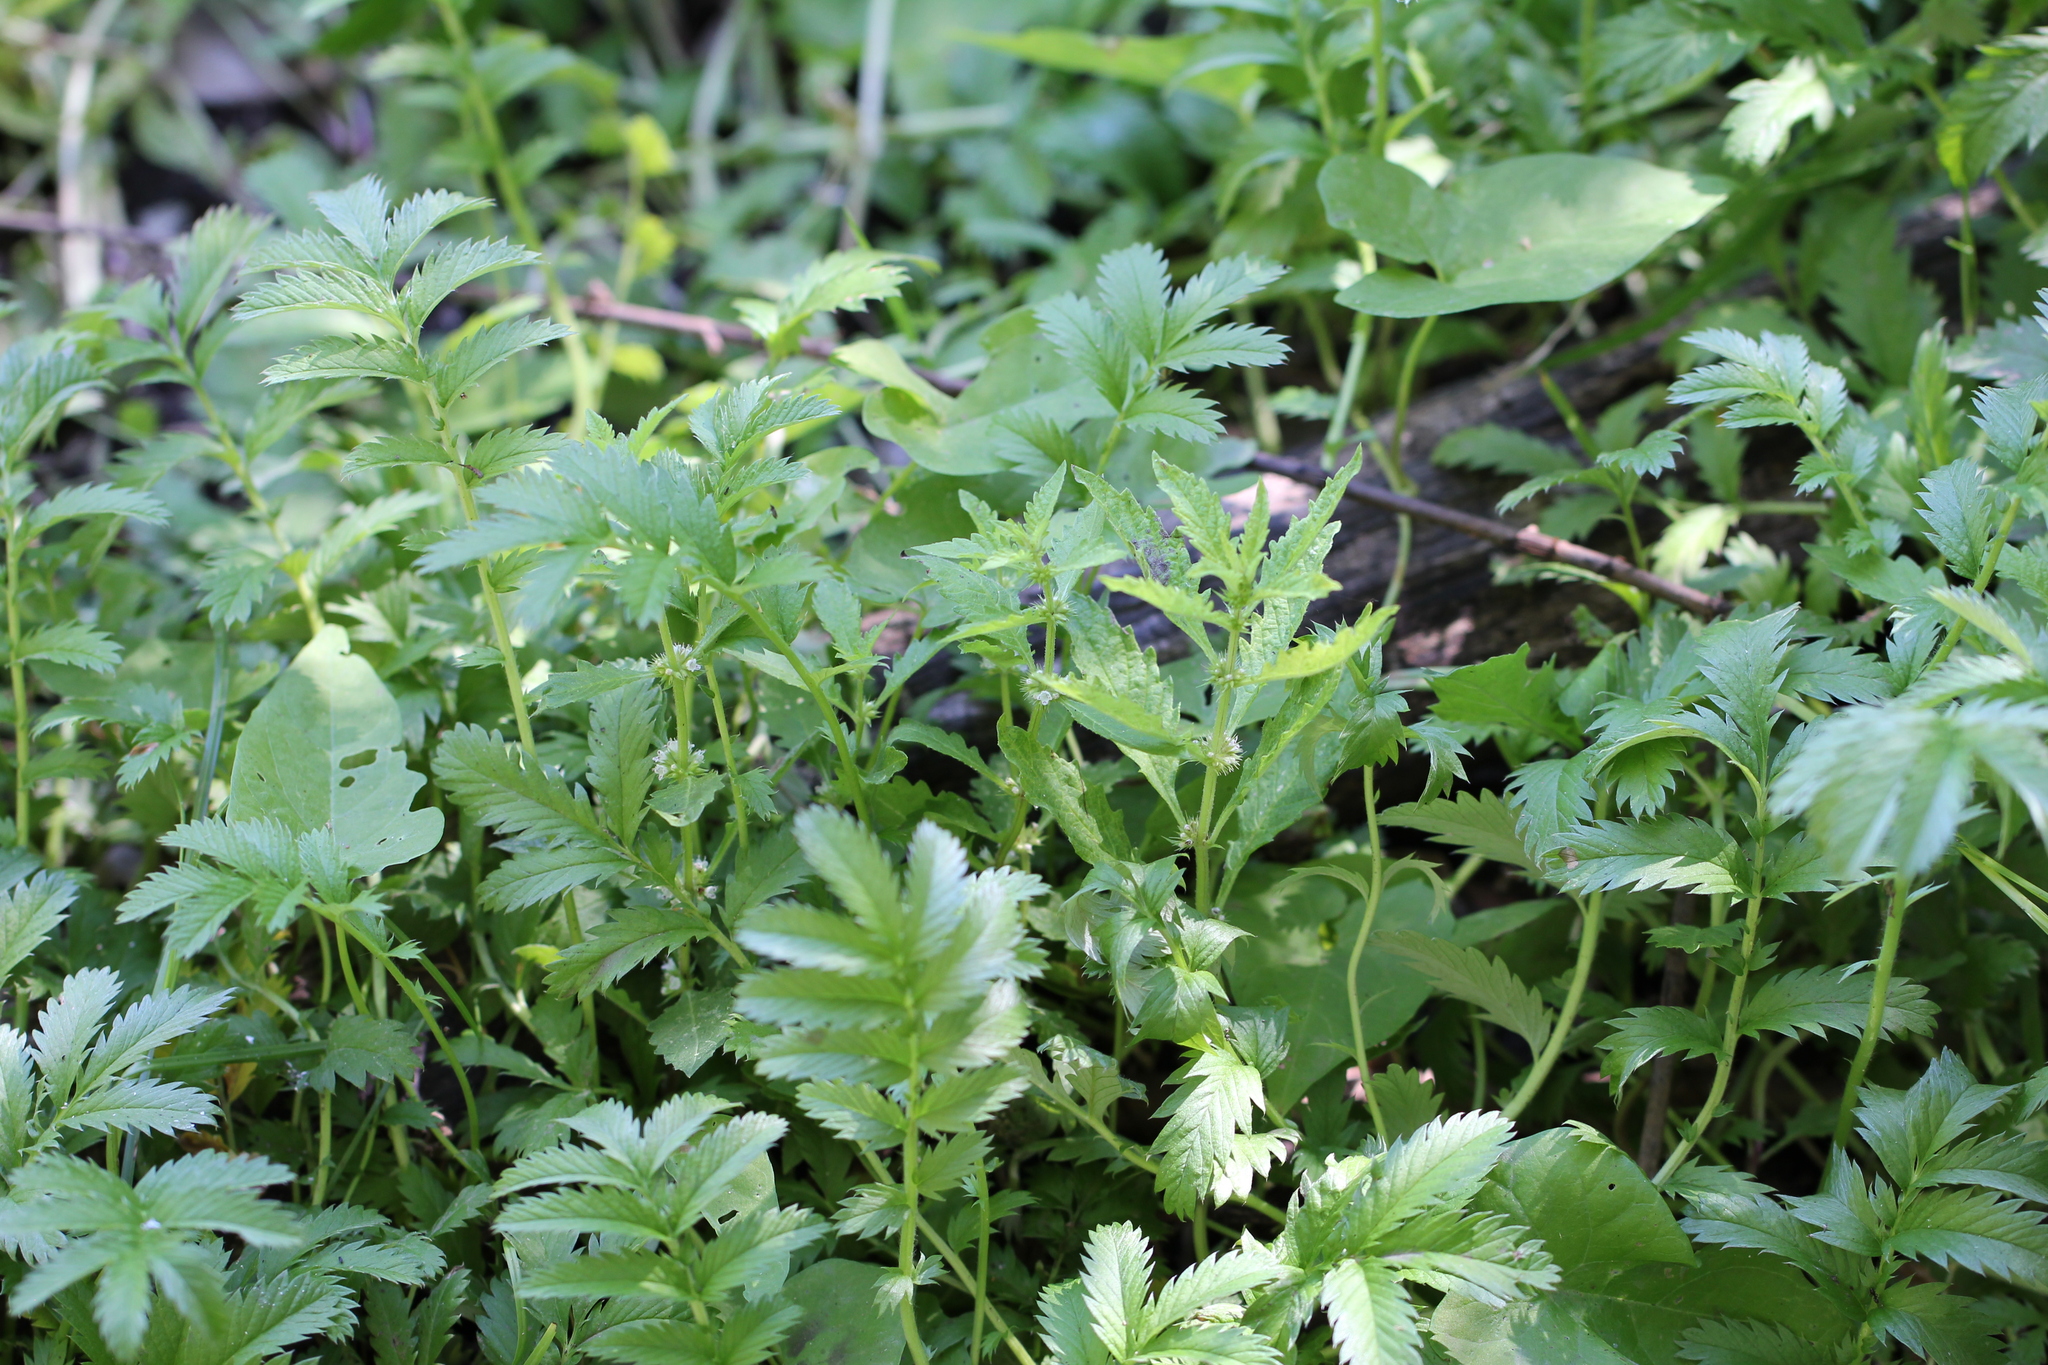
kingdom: Plantae
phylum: Tracheophyta
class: Magnoliopsida
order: Rosales
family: Rosaceae
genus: Argentina
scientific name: Argentina anserina
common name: Common silverweed
